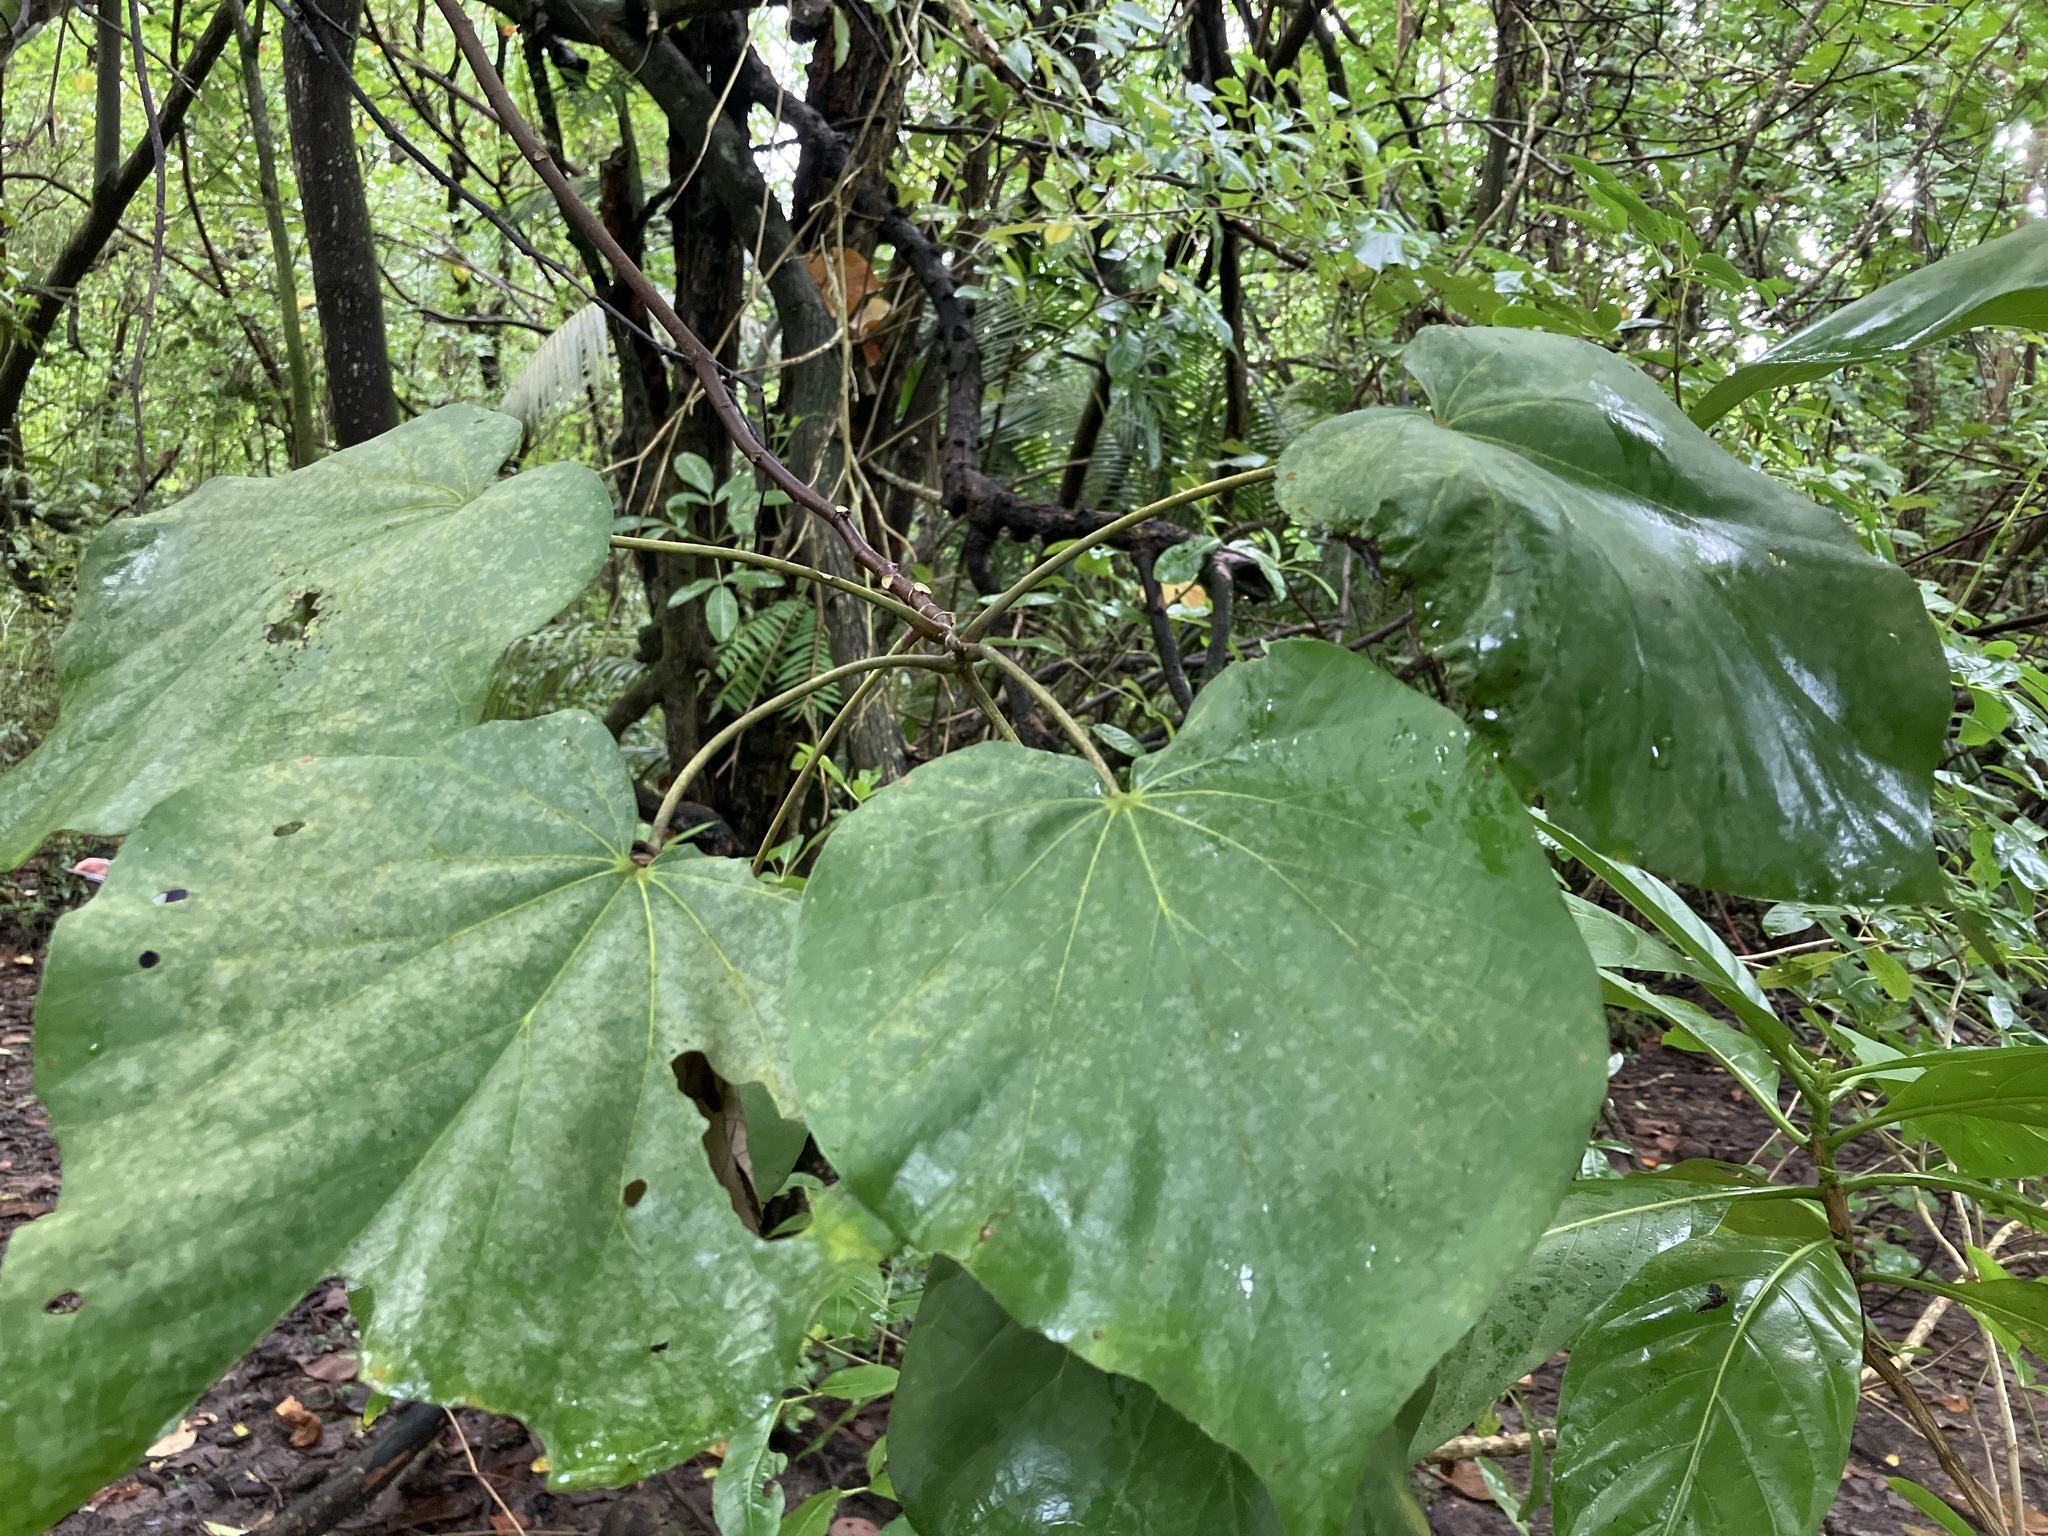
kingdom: Plantae
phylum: Tracheophyta
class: Magnoliopsida
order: Malvales
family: Malvaceae
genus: Talipariti
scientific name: Talipariti tiliaceum
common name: Sea hibiscus
